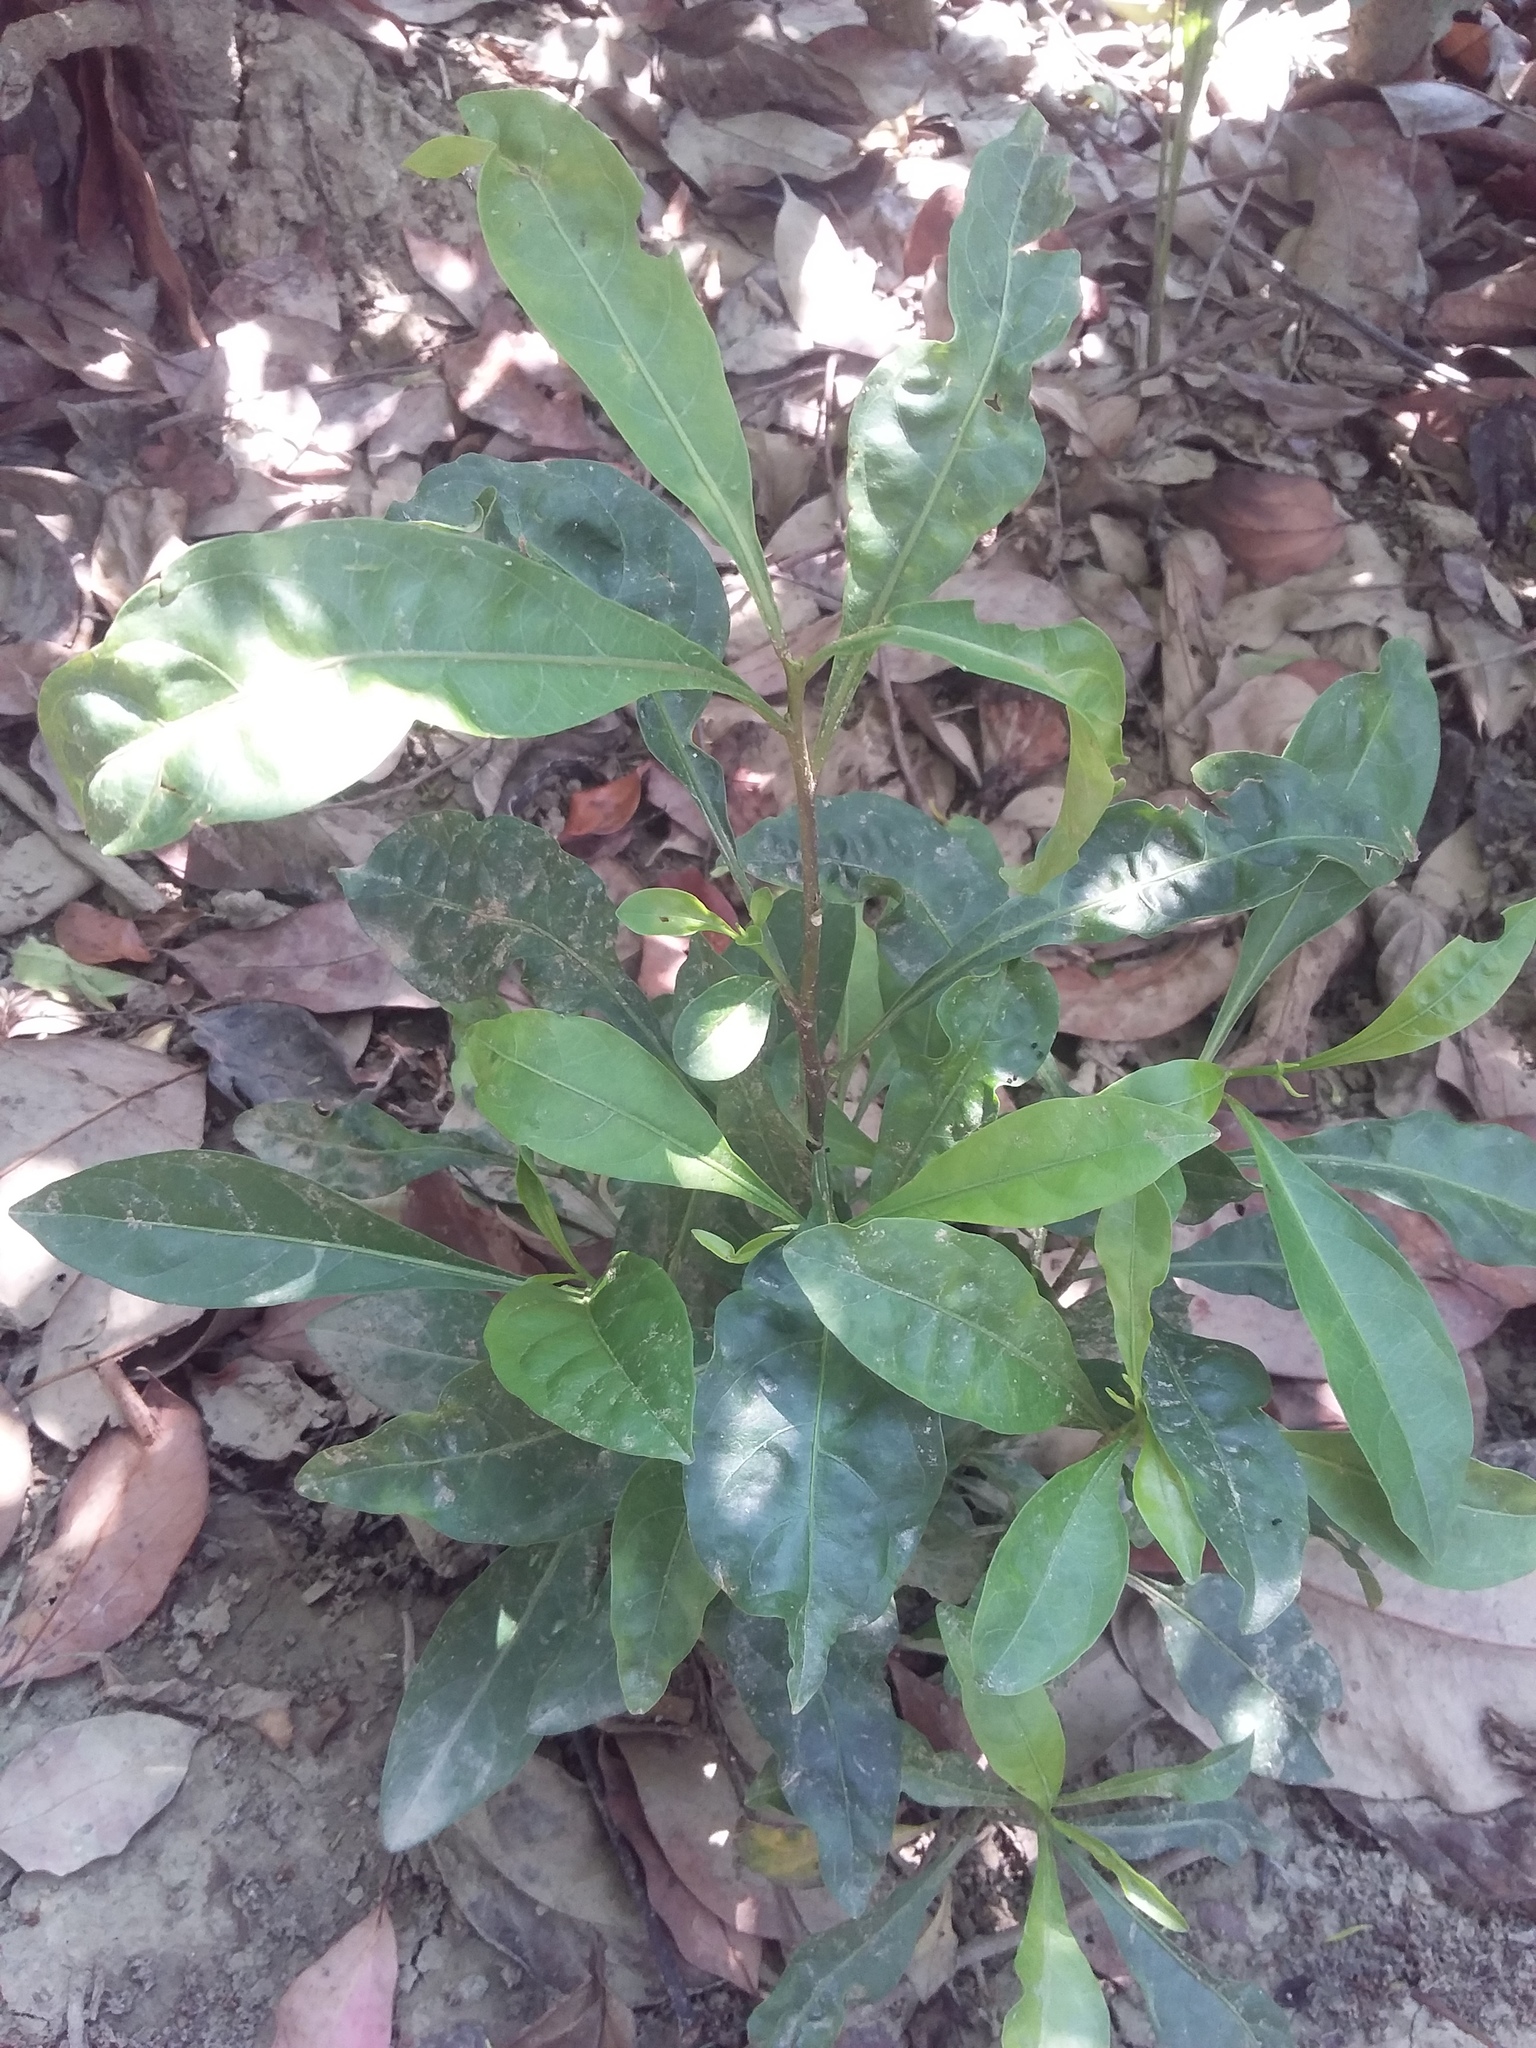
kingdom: Plantae
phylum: Tracheophyta
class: Magnoliopsida
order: Solanales
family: Solanaceae
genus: Solanum
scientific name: Solanum diphyllum
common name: Twoleaf nightshade
